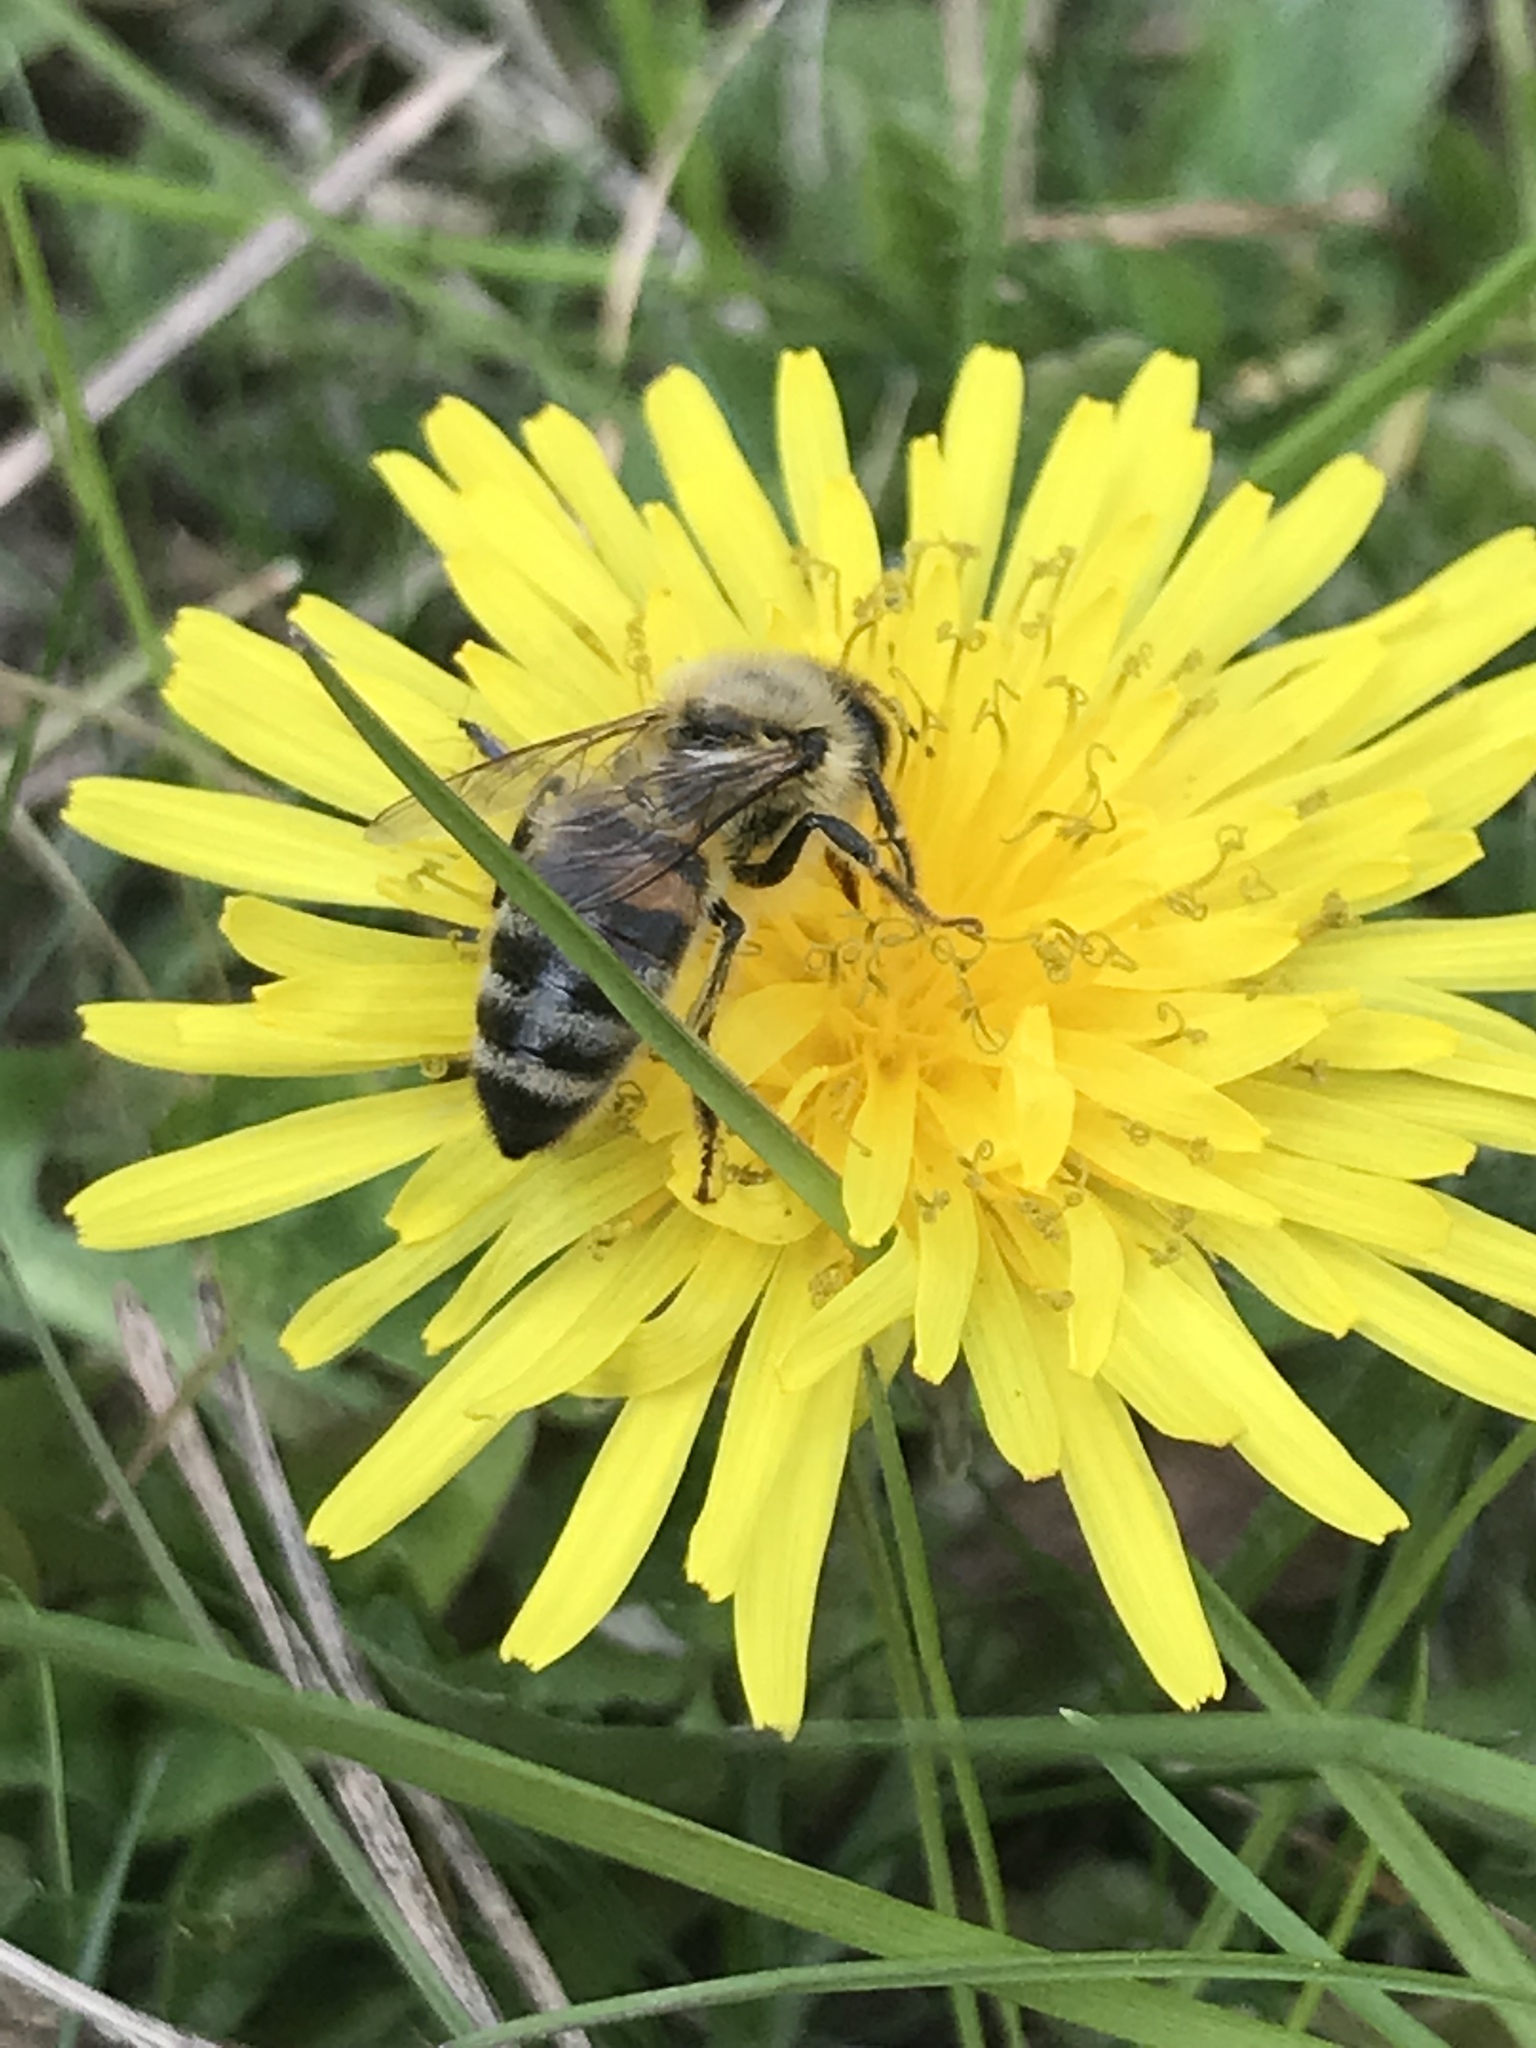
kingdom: Plantae
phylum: Tracheophyta
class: Magnoliopsida
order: Asterales
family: Asteraceae
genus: Taraxacum
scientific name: Taraxacum officinale
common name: Common dandelion
